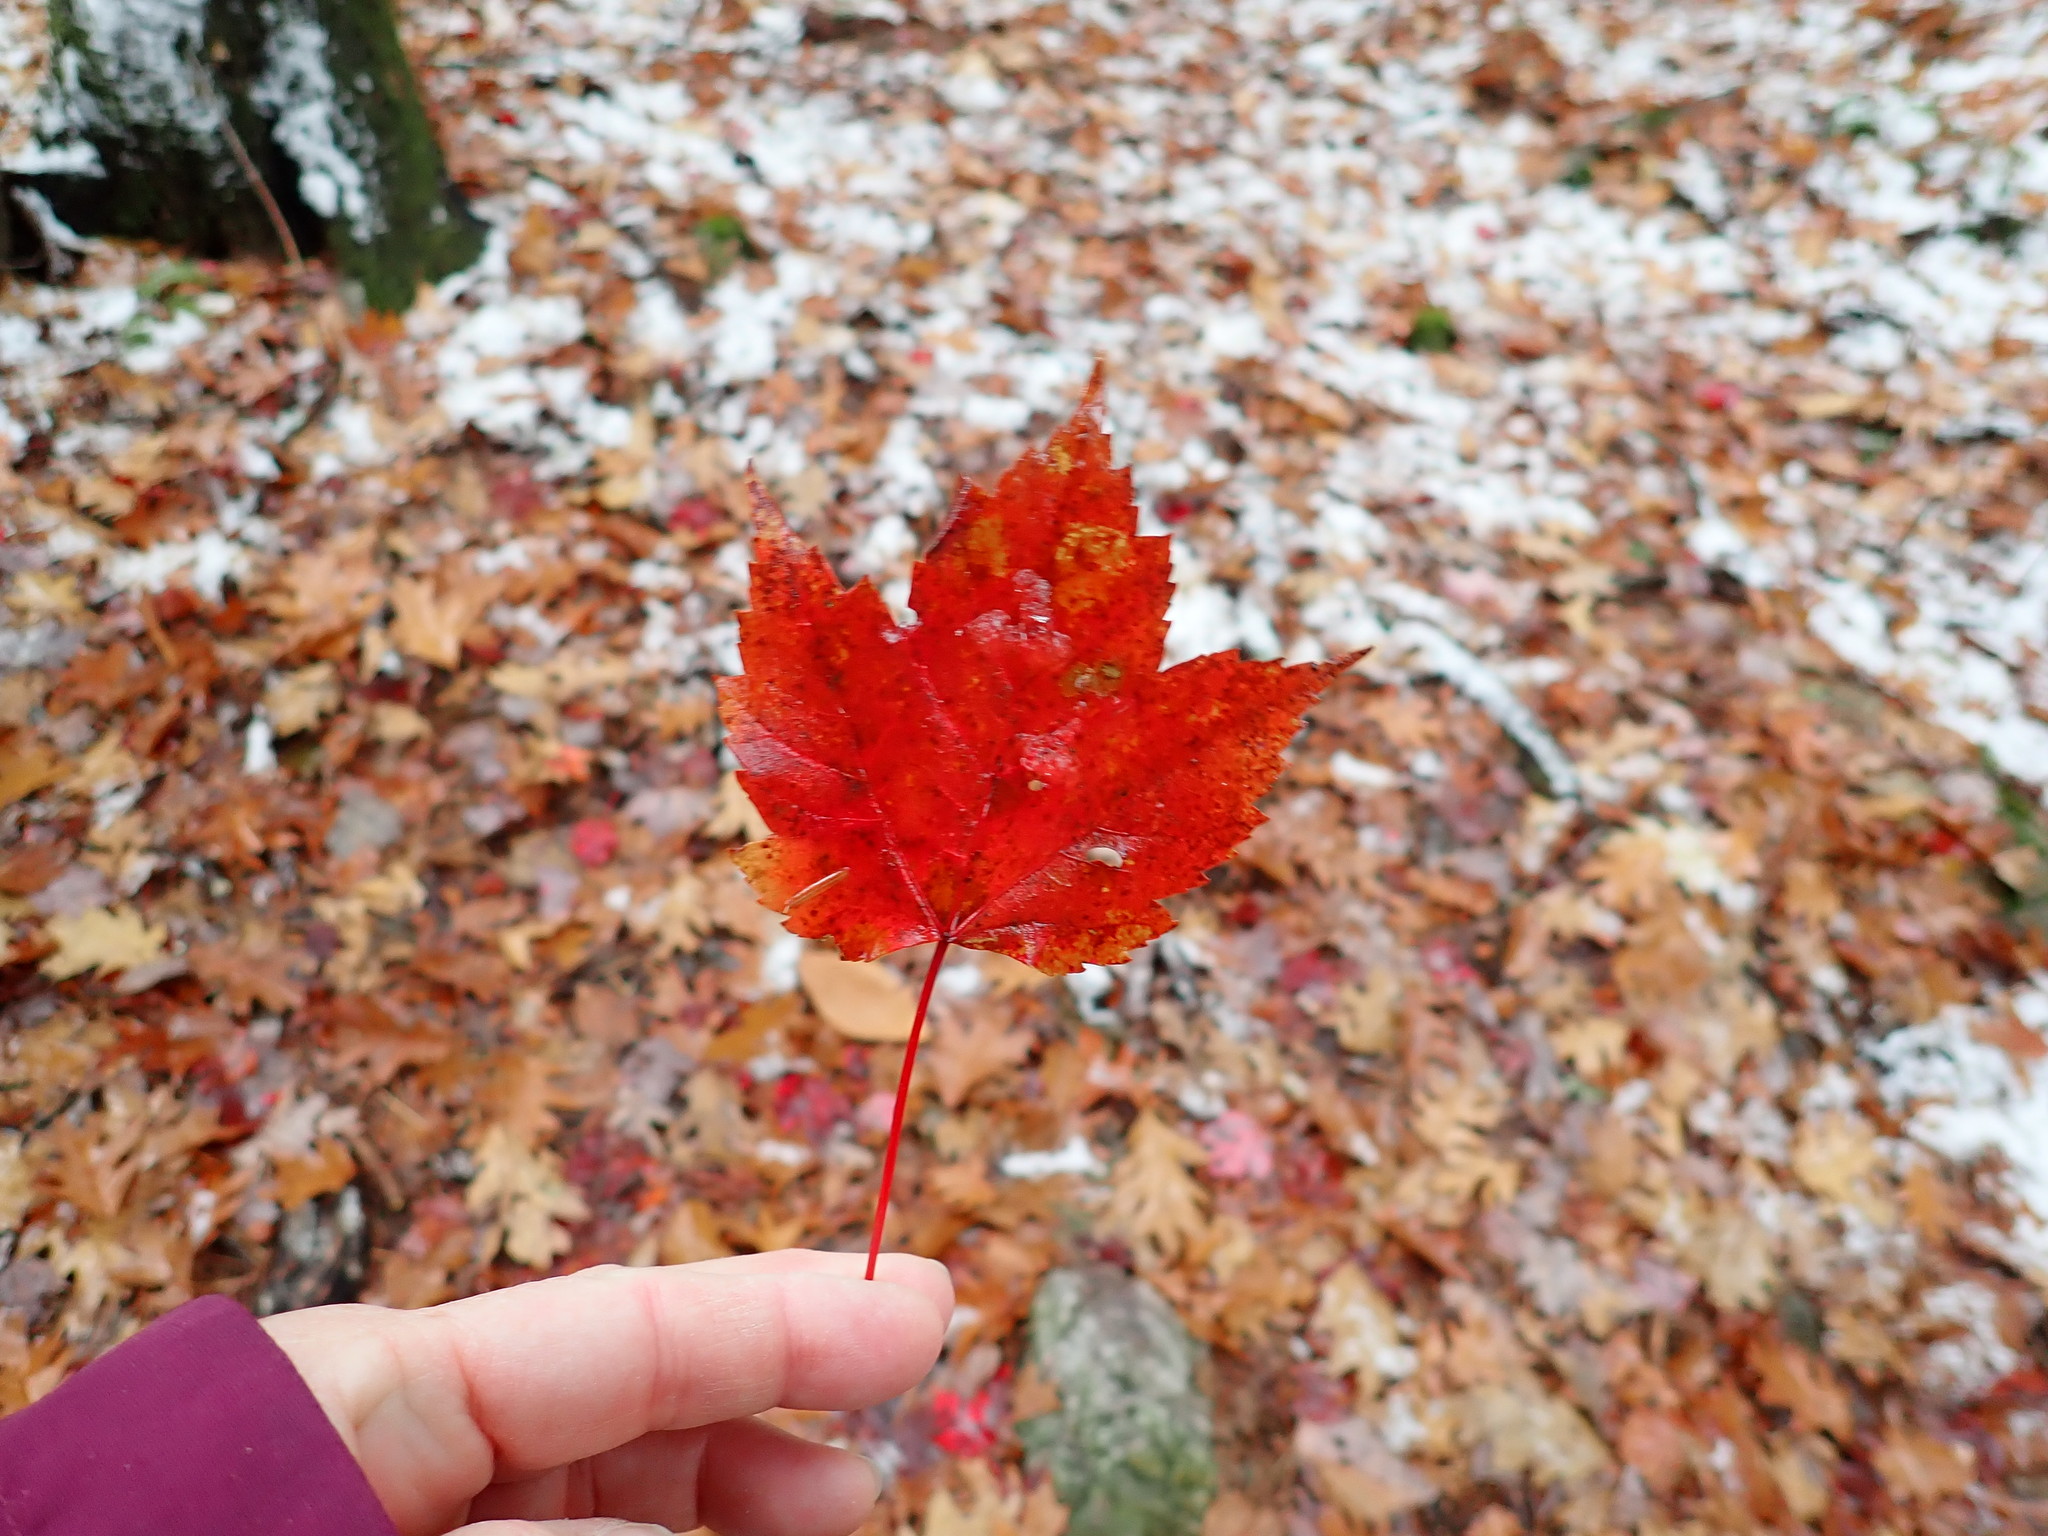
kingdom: Plantae
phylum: Tracheophyta
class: Magnoliopsida
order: Sapindales
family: Sapindaceae
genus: Acer
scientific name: Acer rubrum
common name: Red maple
